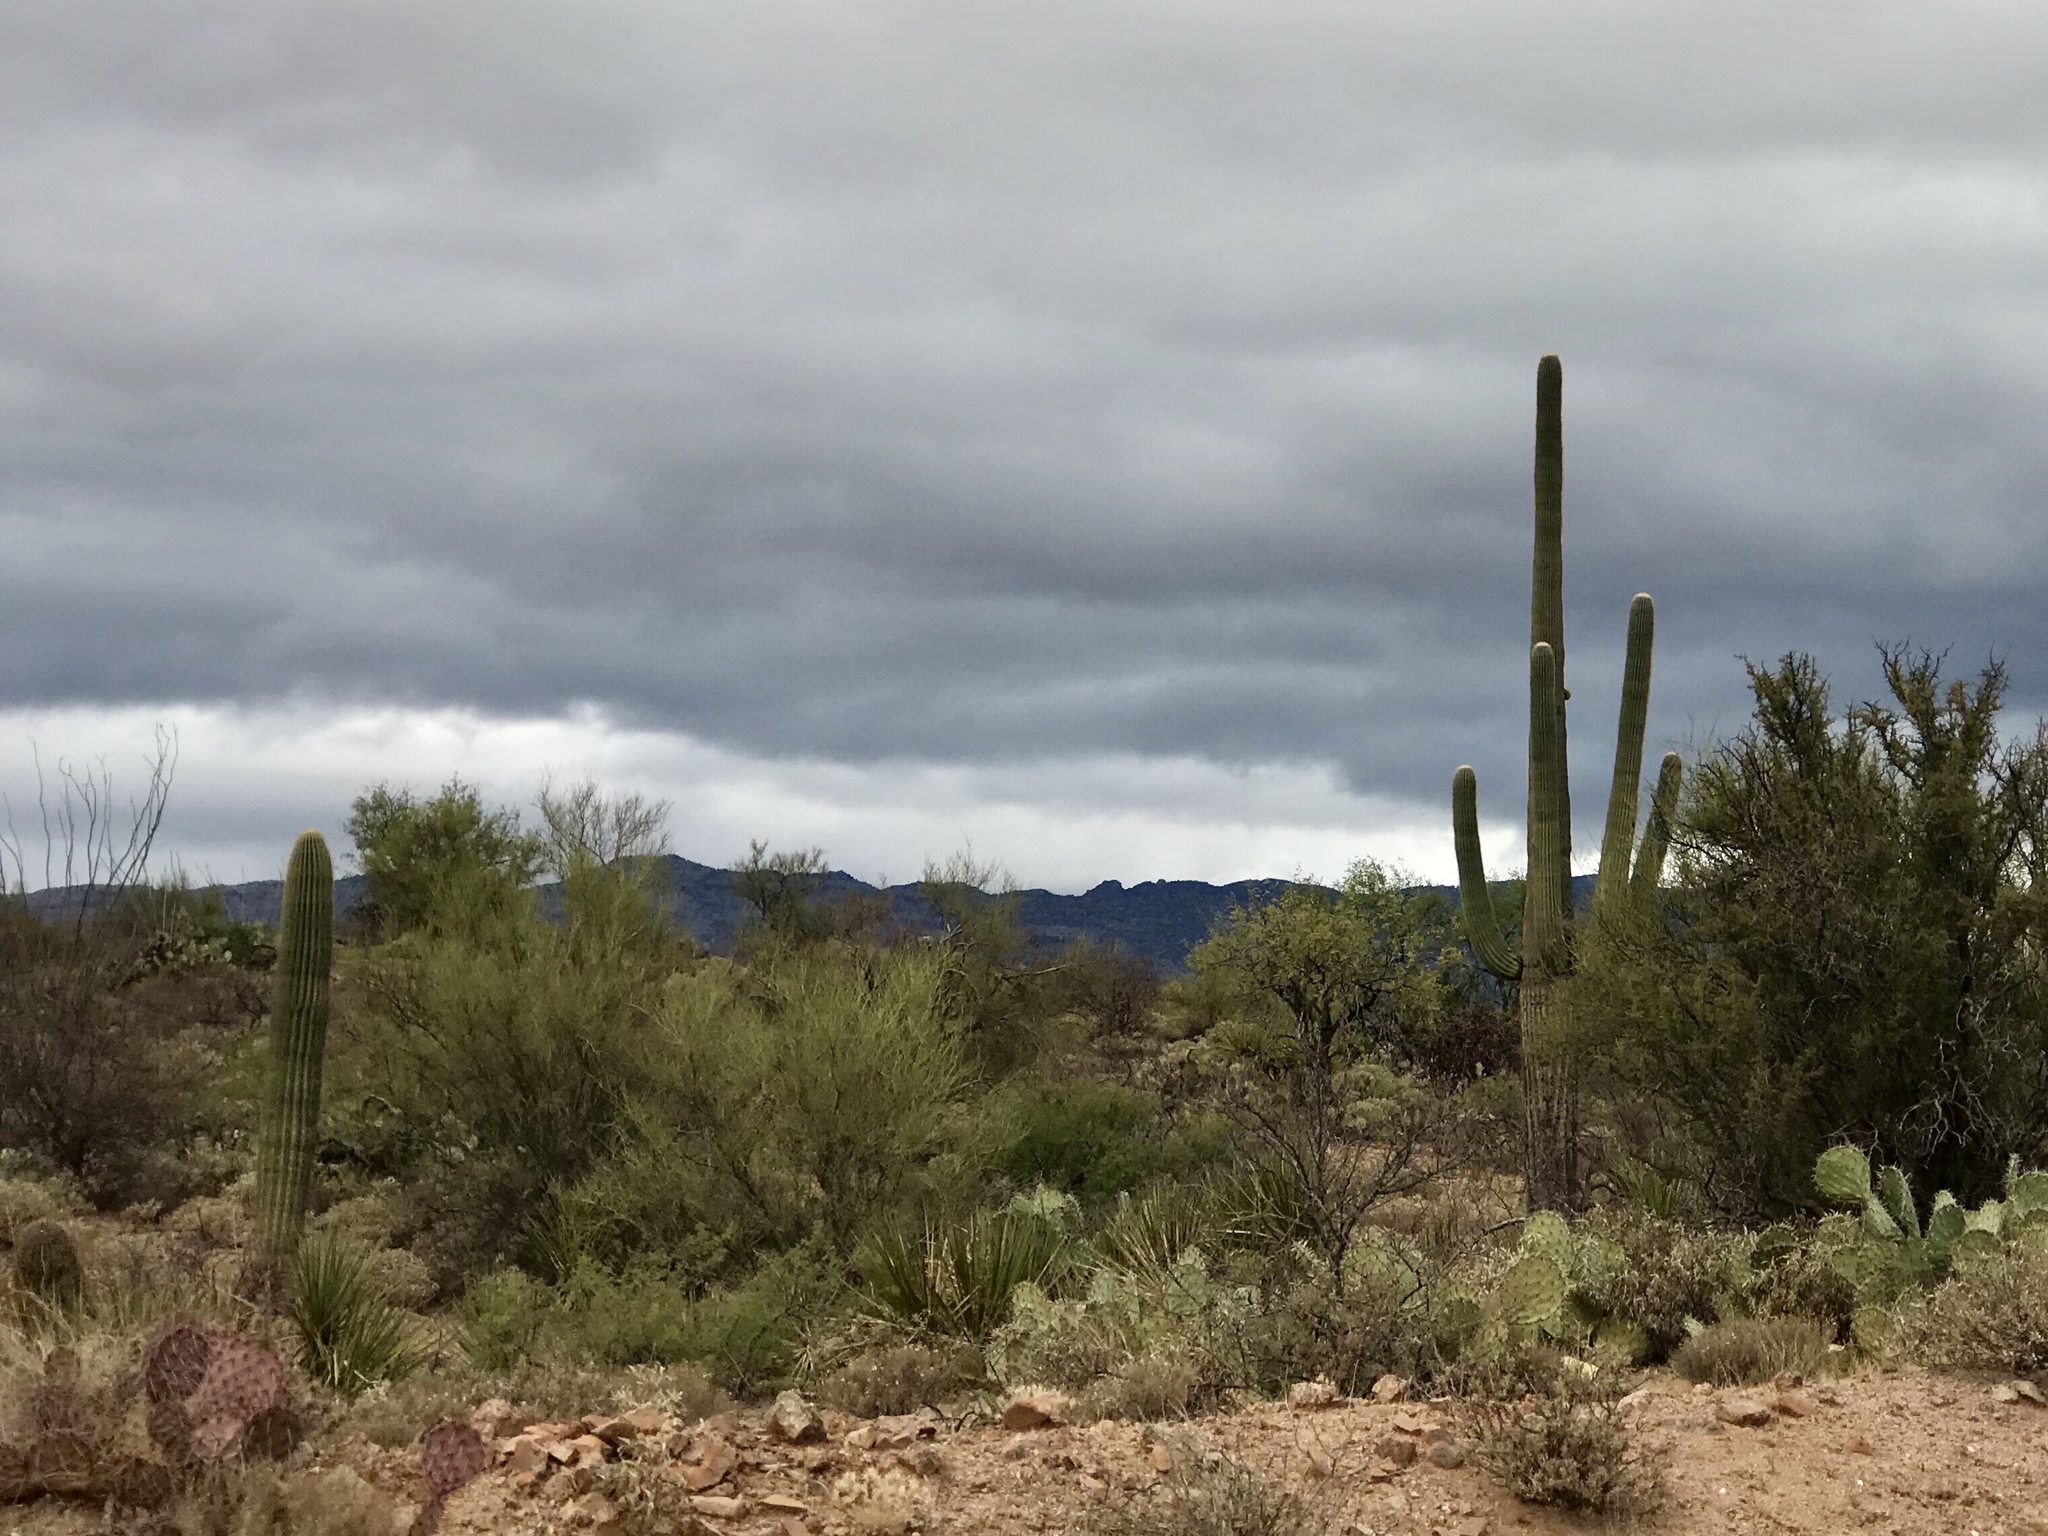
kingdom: Plantae
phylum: Tracheophyta
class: Magnoliopsida
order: Caryophyllales
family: Cactaceae
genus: Carnegiea
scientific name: Carnegiea gigantea
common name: Saguaro
